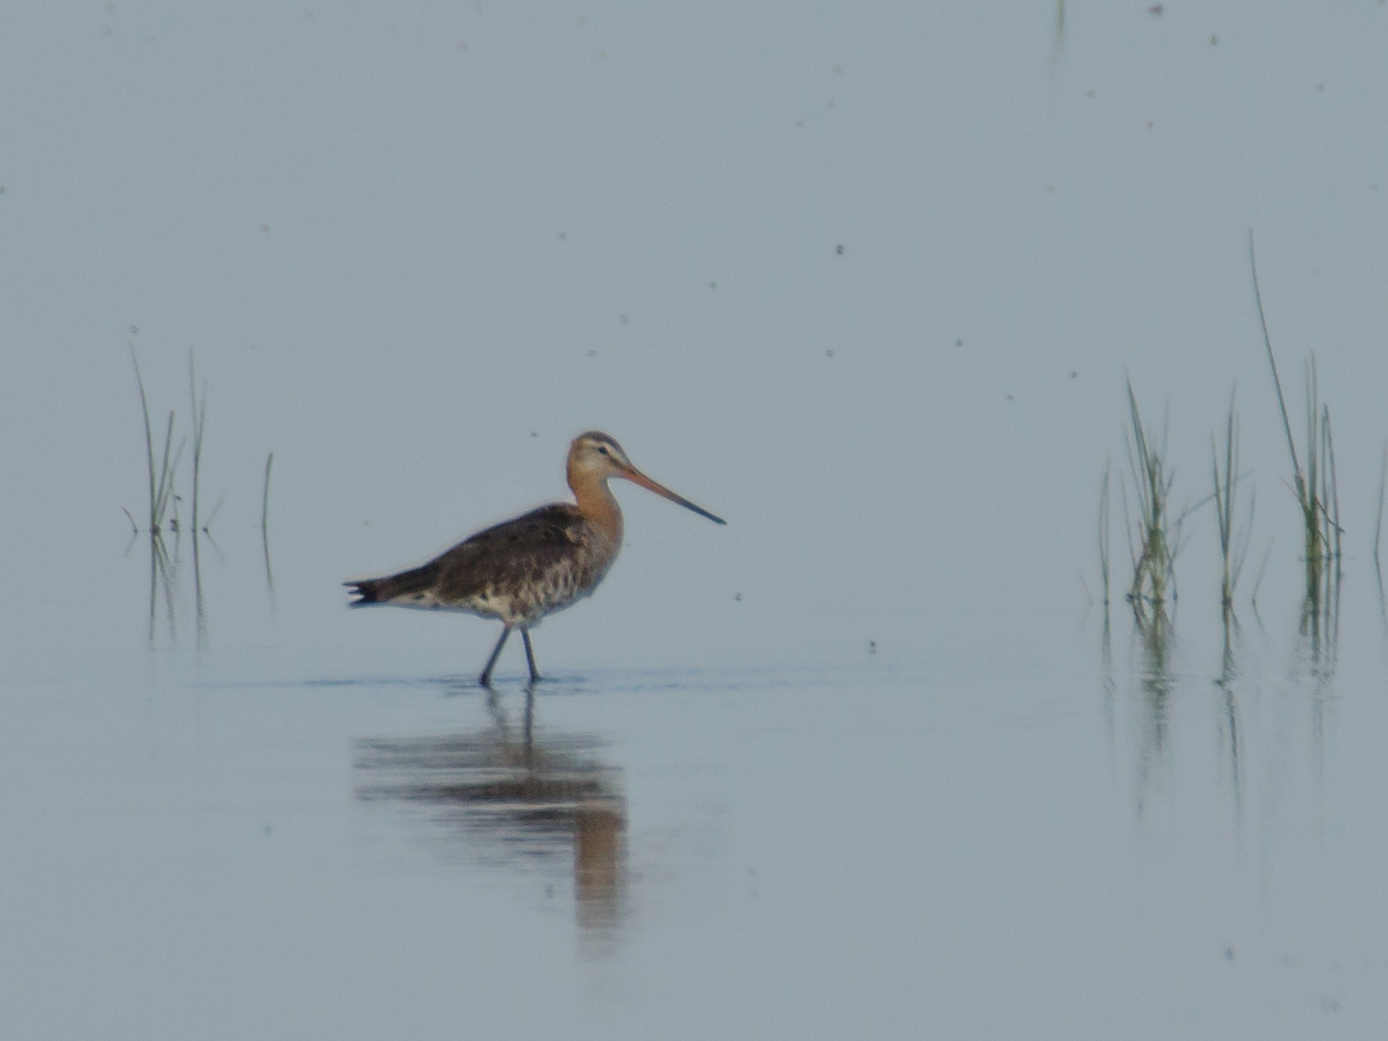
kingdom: Animalia
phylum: Chordata
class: Aves
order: Charadriiformes
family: Scolopacidae
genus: Limosa
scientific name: Limosa limosa
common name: Black-tailed godwit
